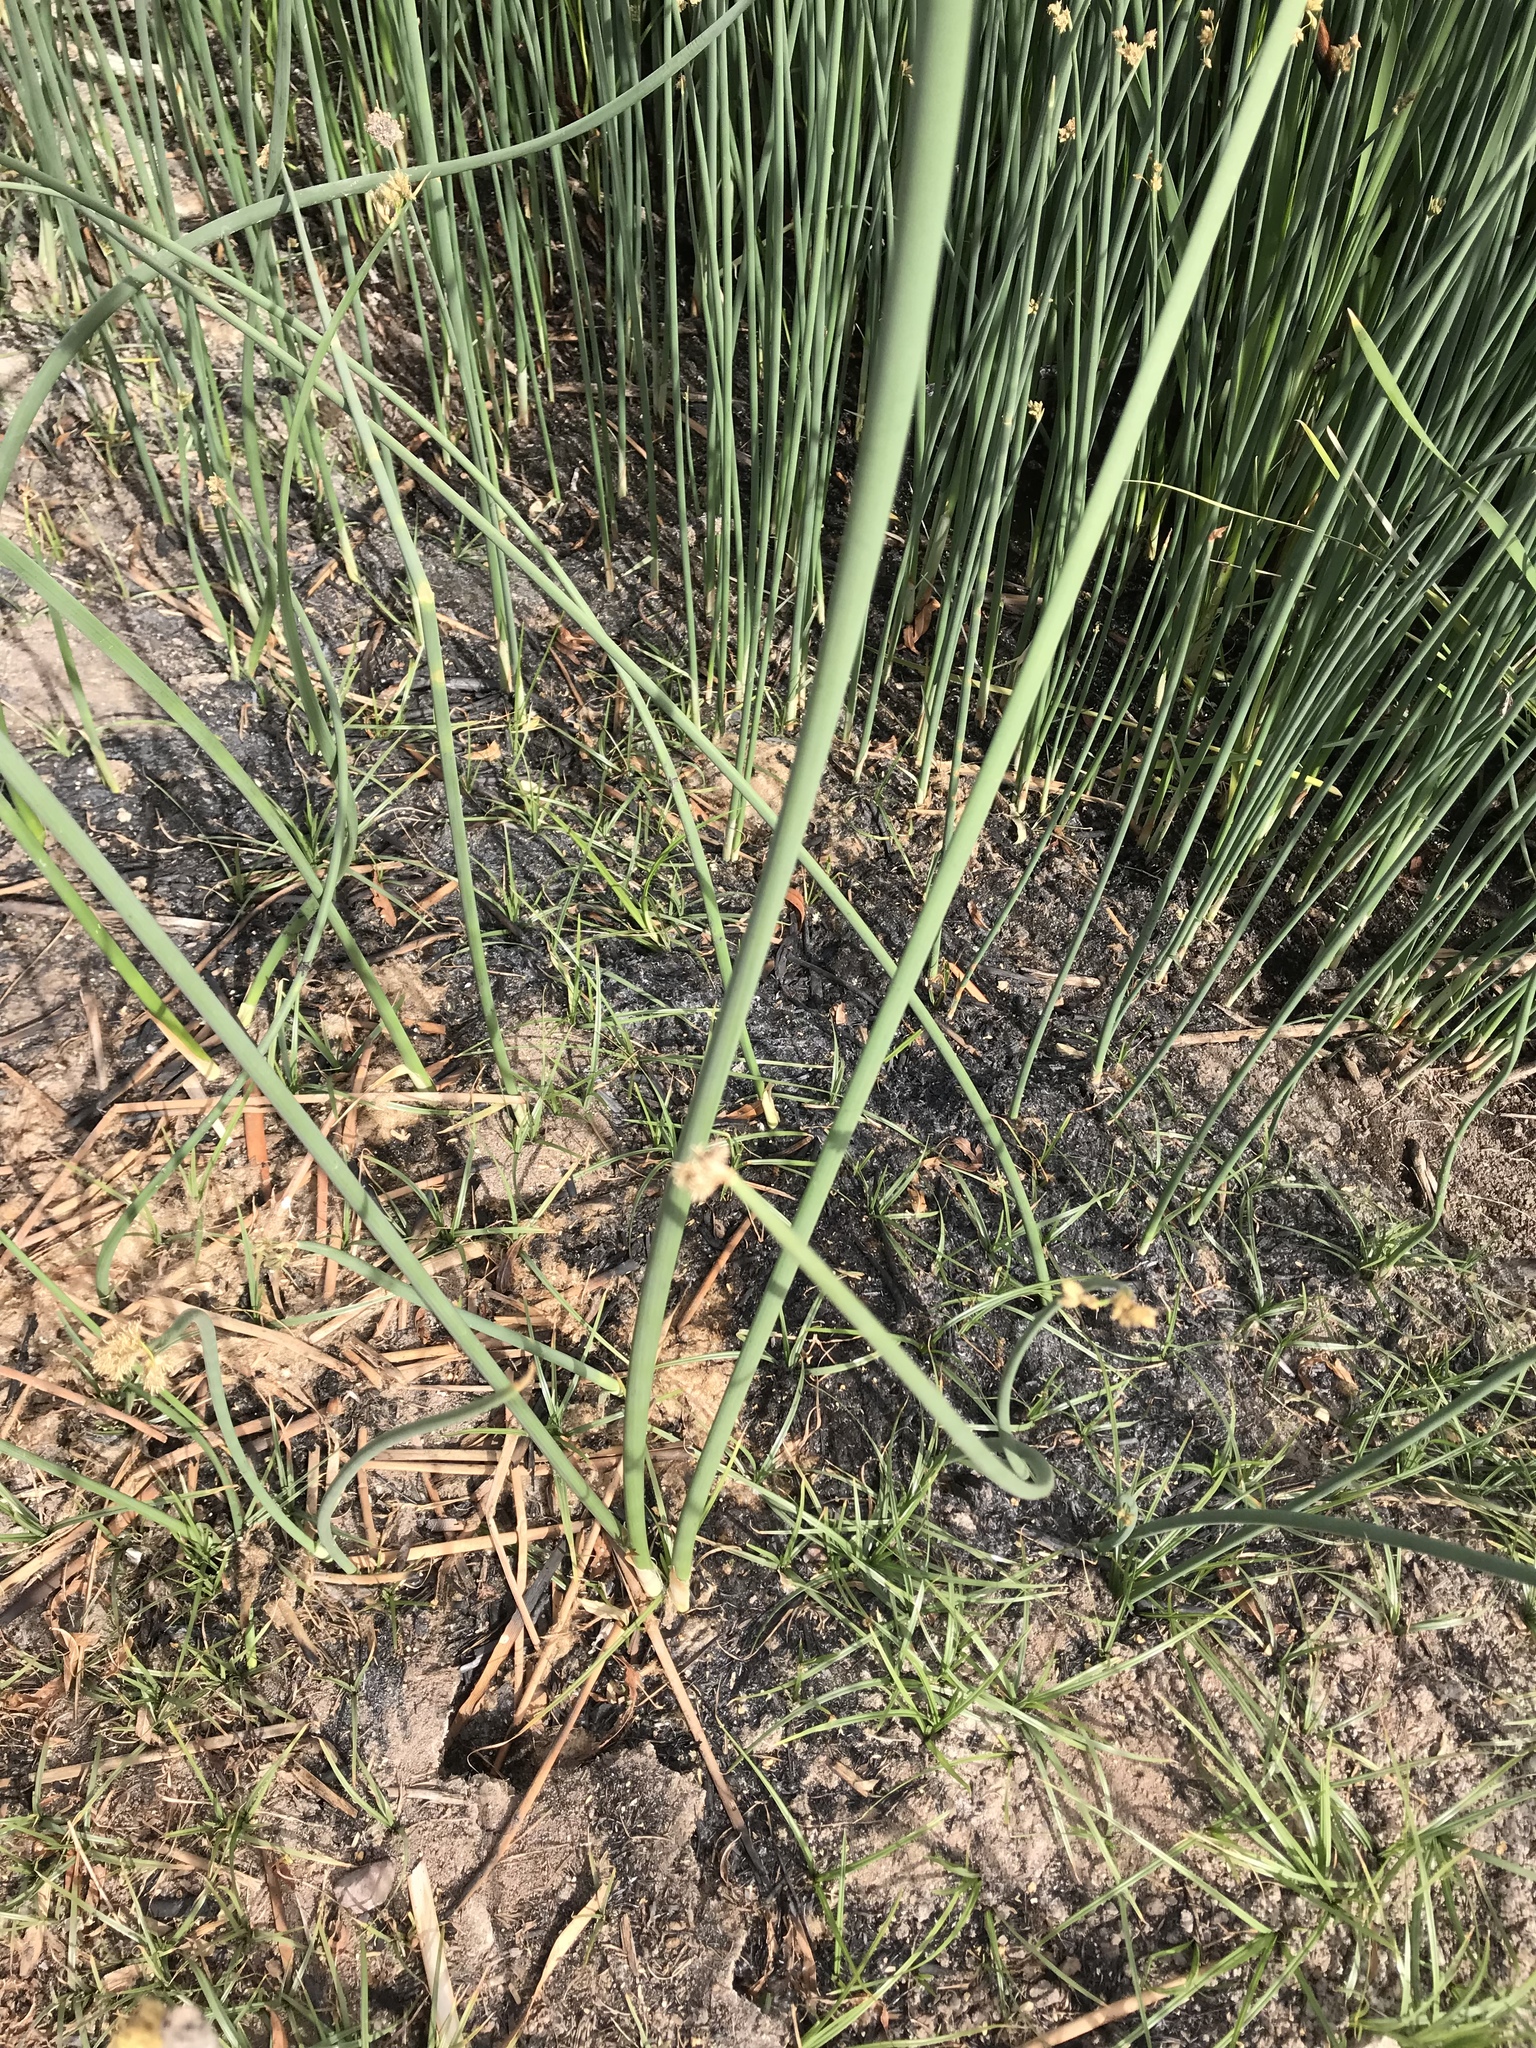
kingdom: Plantae
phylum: Tracheophyta
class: Liliopsida
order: Poales
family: Cyperaceae
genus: Schoenoplectus
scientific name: Schoenoplectus acutus
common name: Hardstem bulrush
